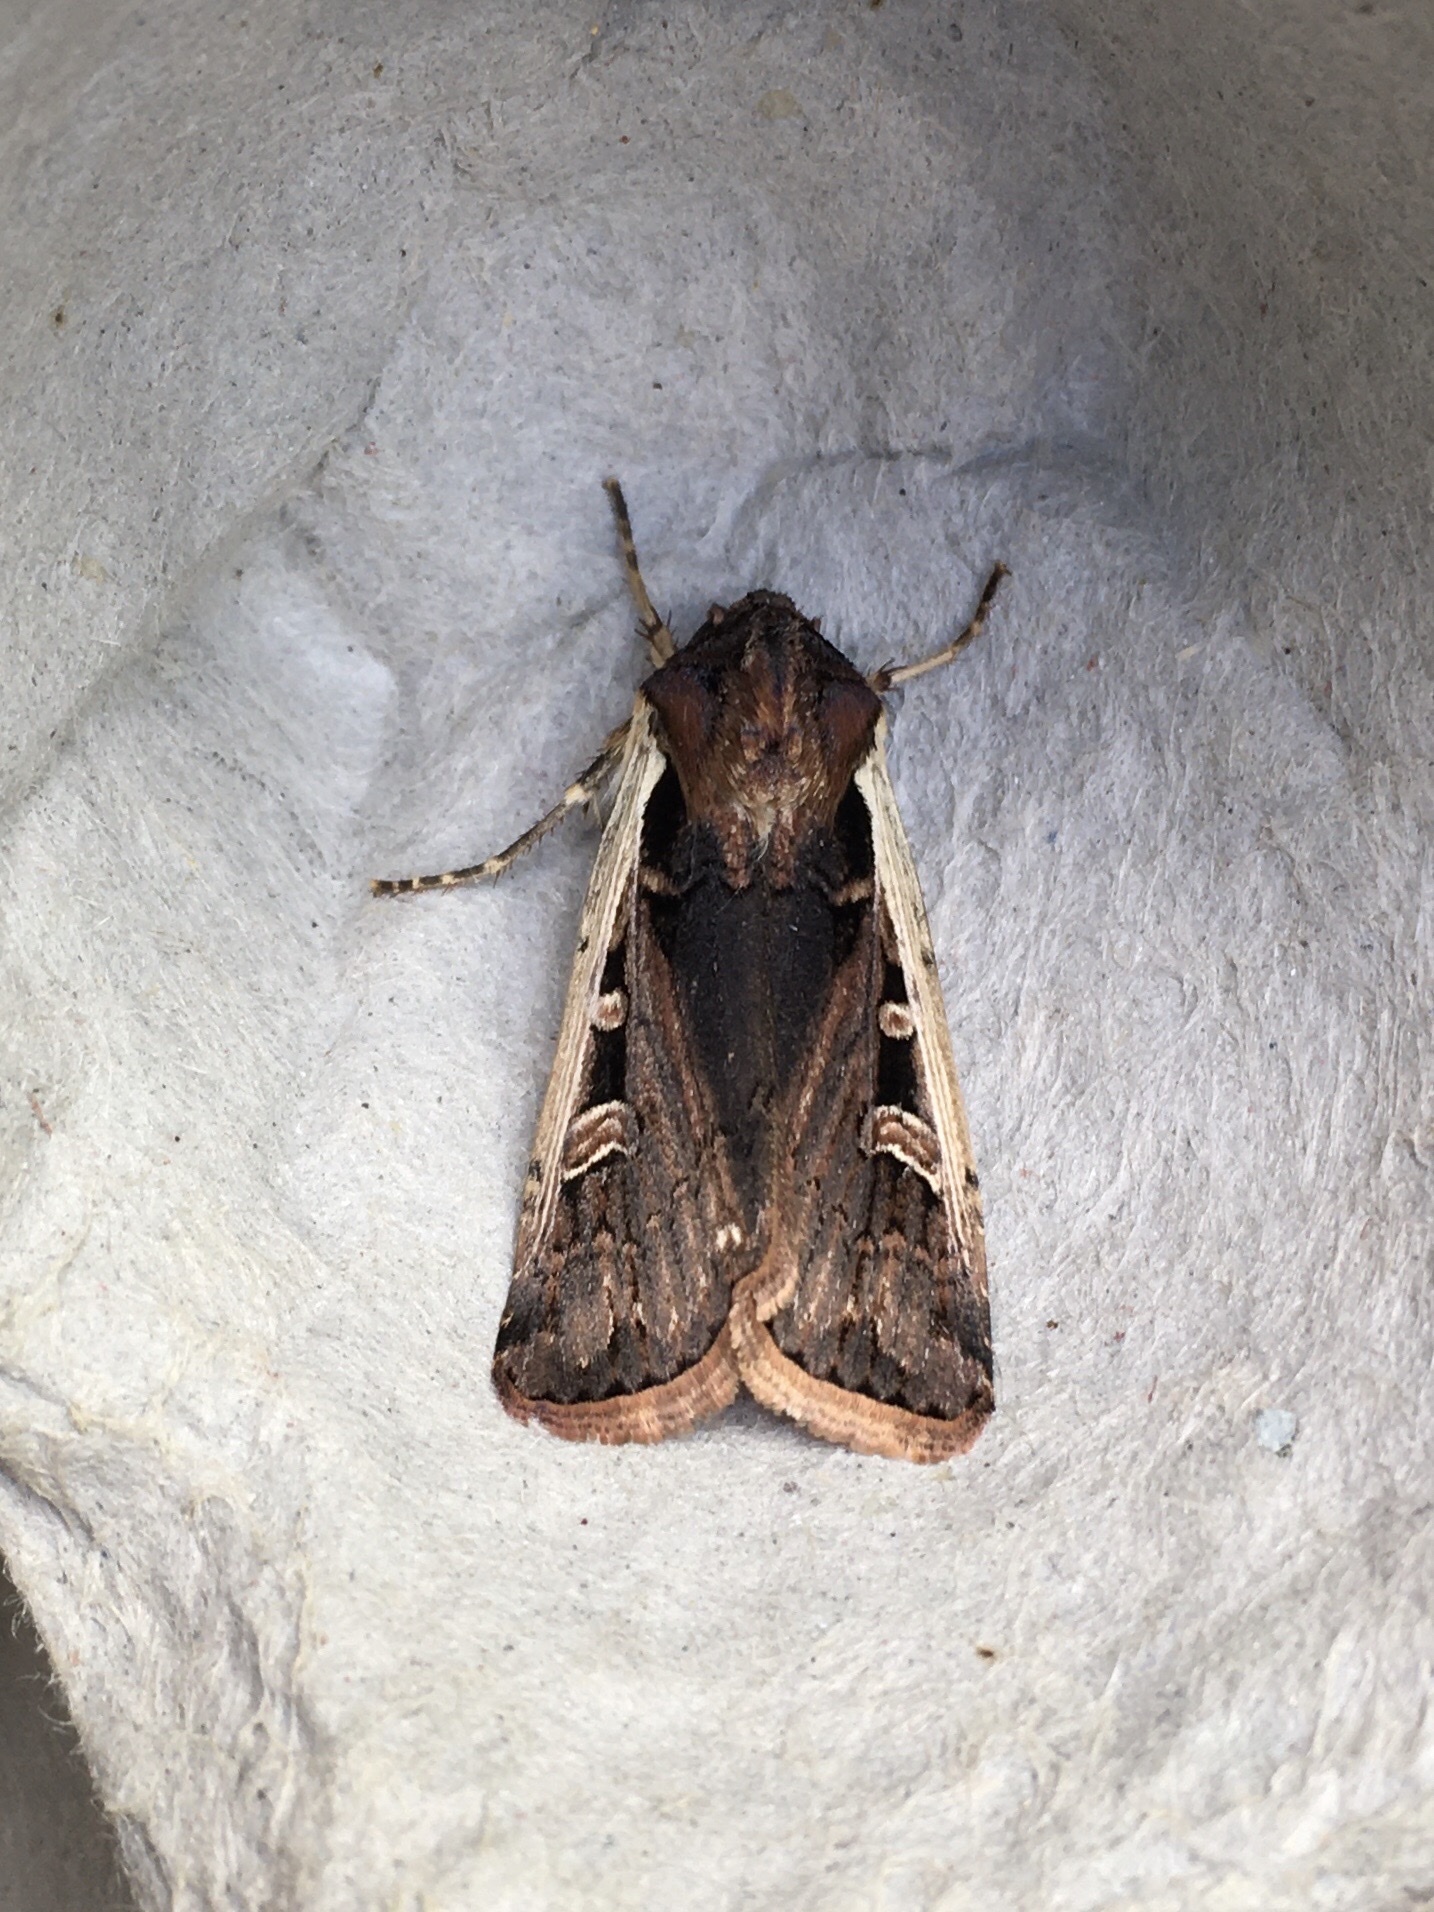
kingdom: Animalia
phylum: Arthropoda
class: Insecta
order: Lepidoptera
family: Noctuidae
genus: Striacosta
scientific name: Striacosta albicosta
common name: Western bean cutworm moth
